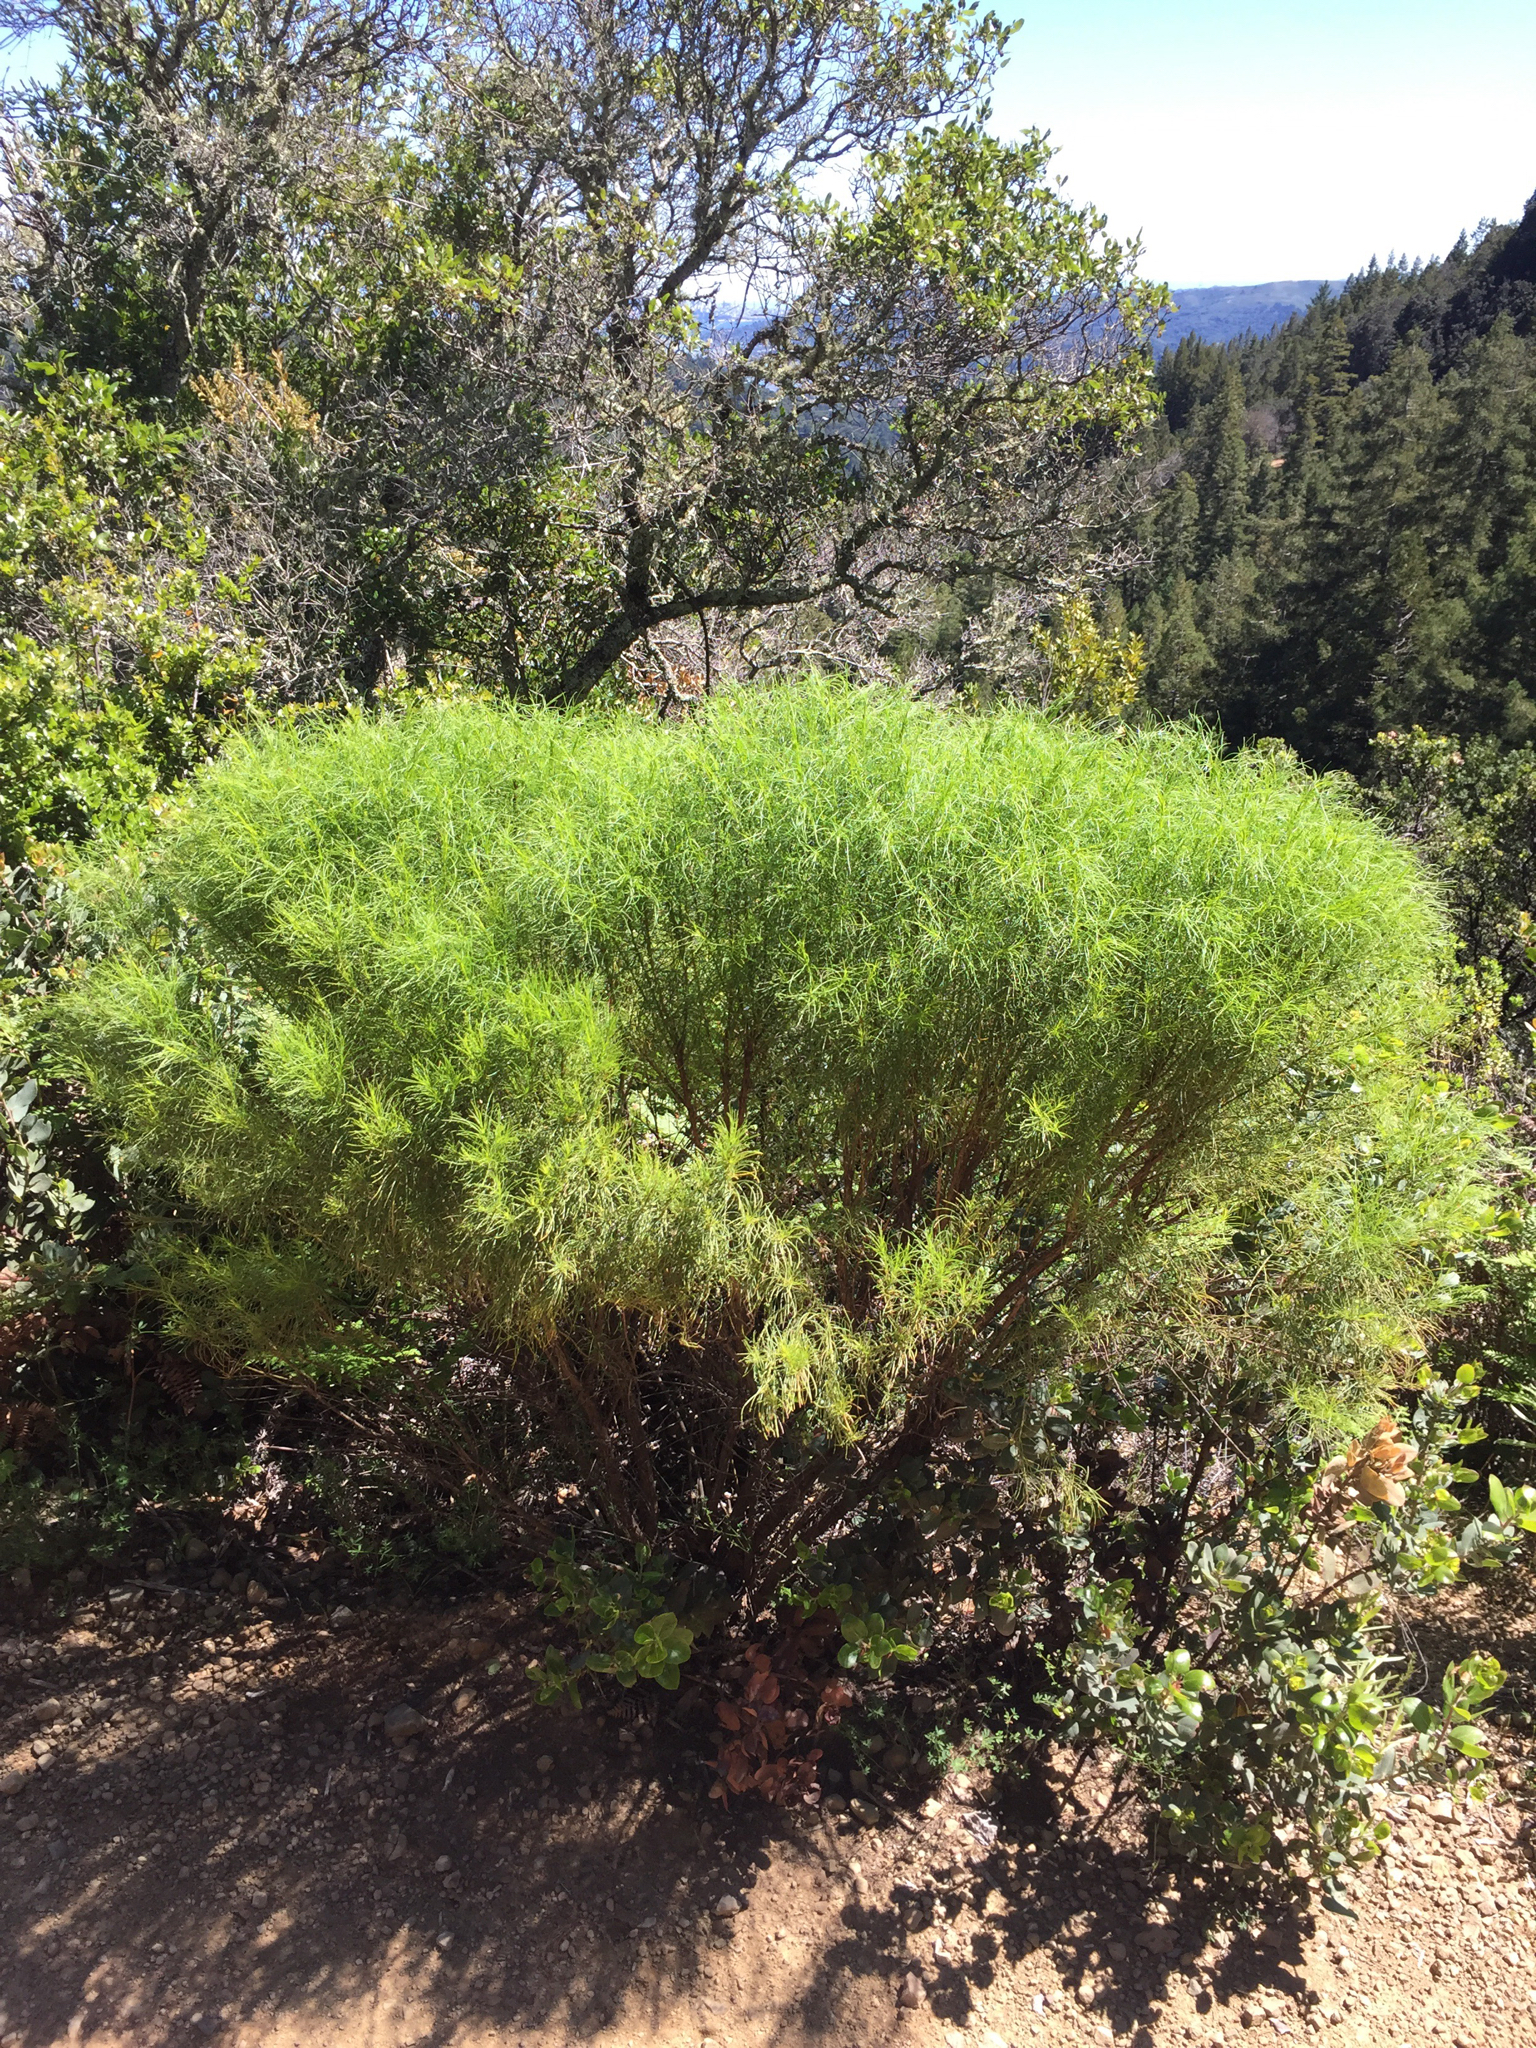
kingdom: Plantae
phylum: Tracheophyta
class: Magnoliopsida
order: Asterales
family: Asteraceae
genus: Ericameria
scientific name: Ericameria arborescens
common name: Goldenfleece
